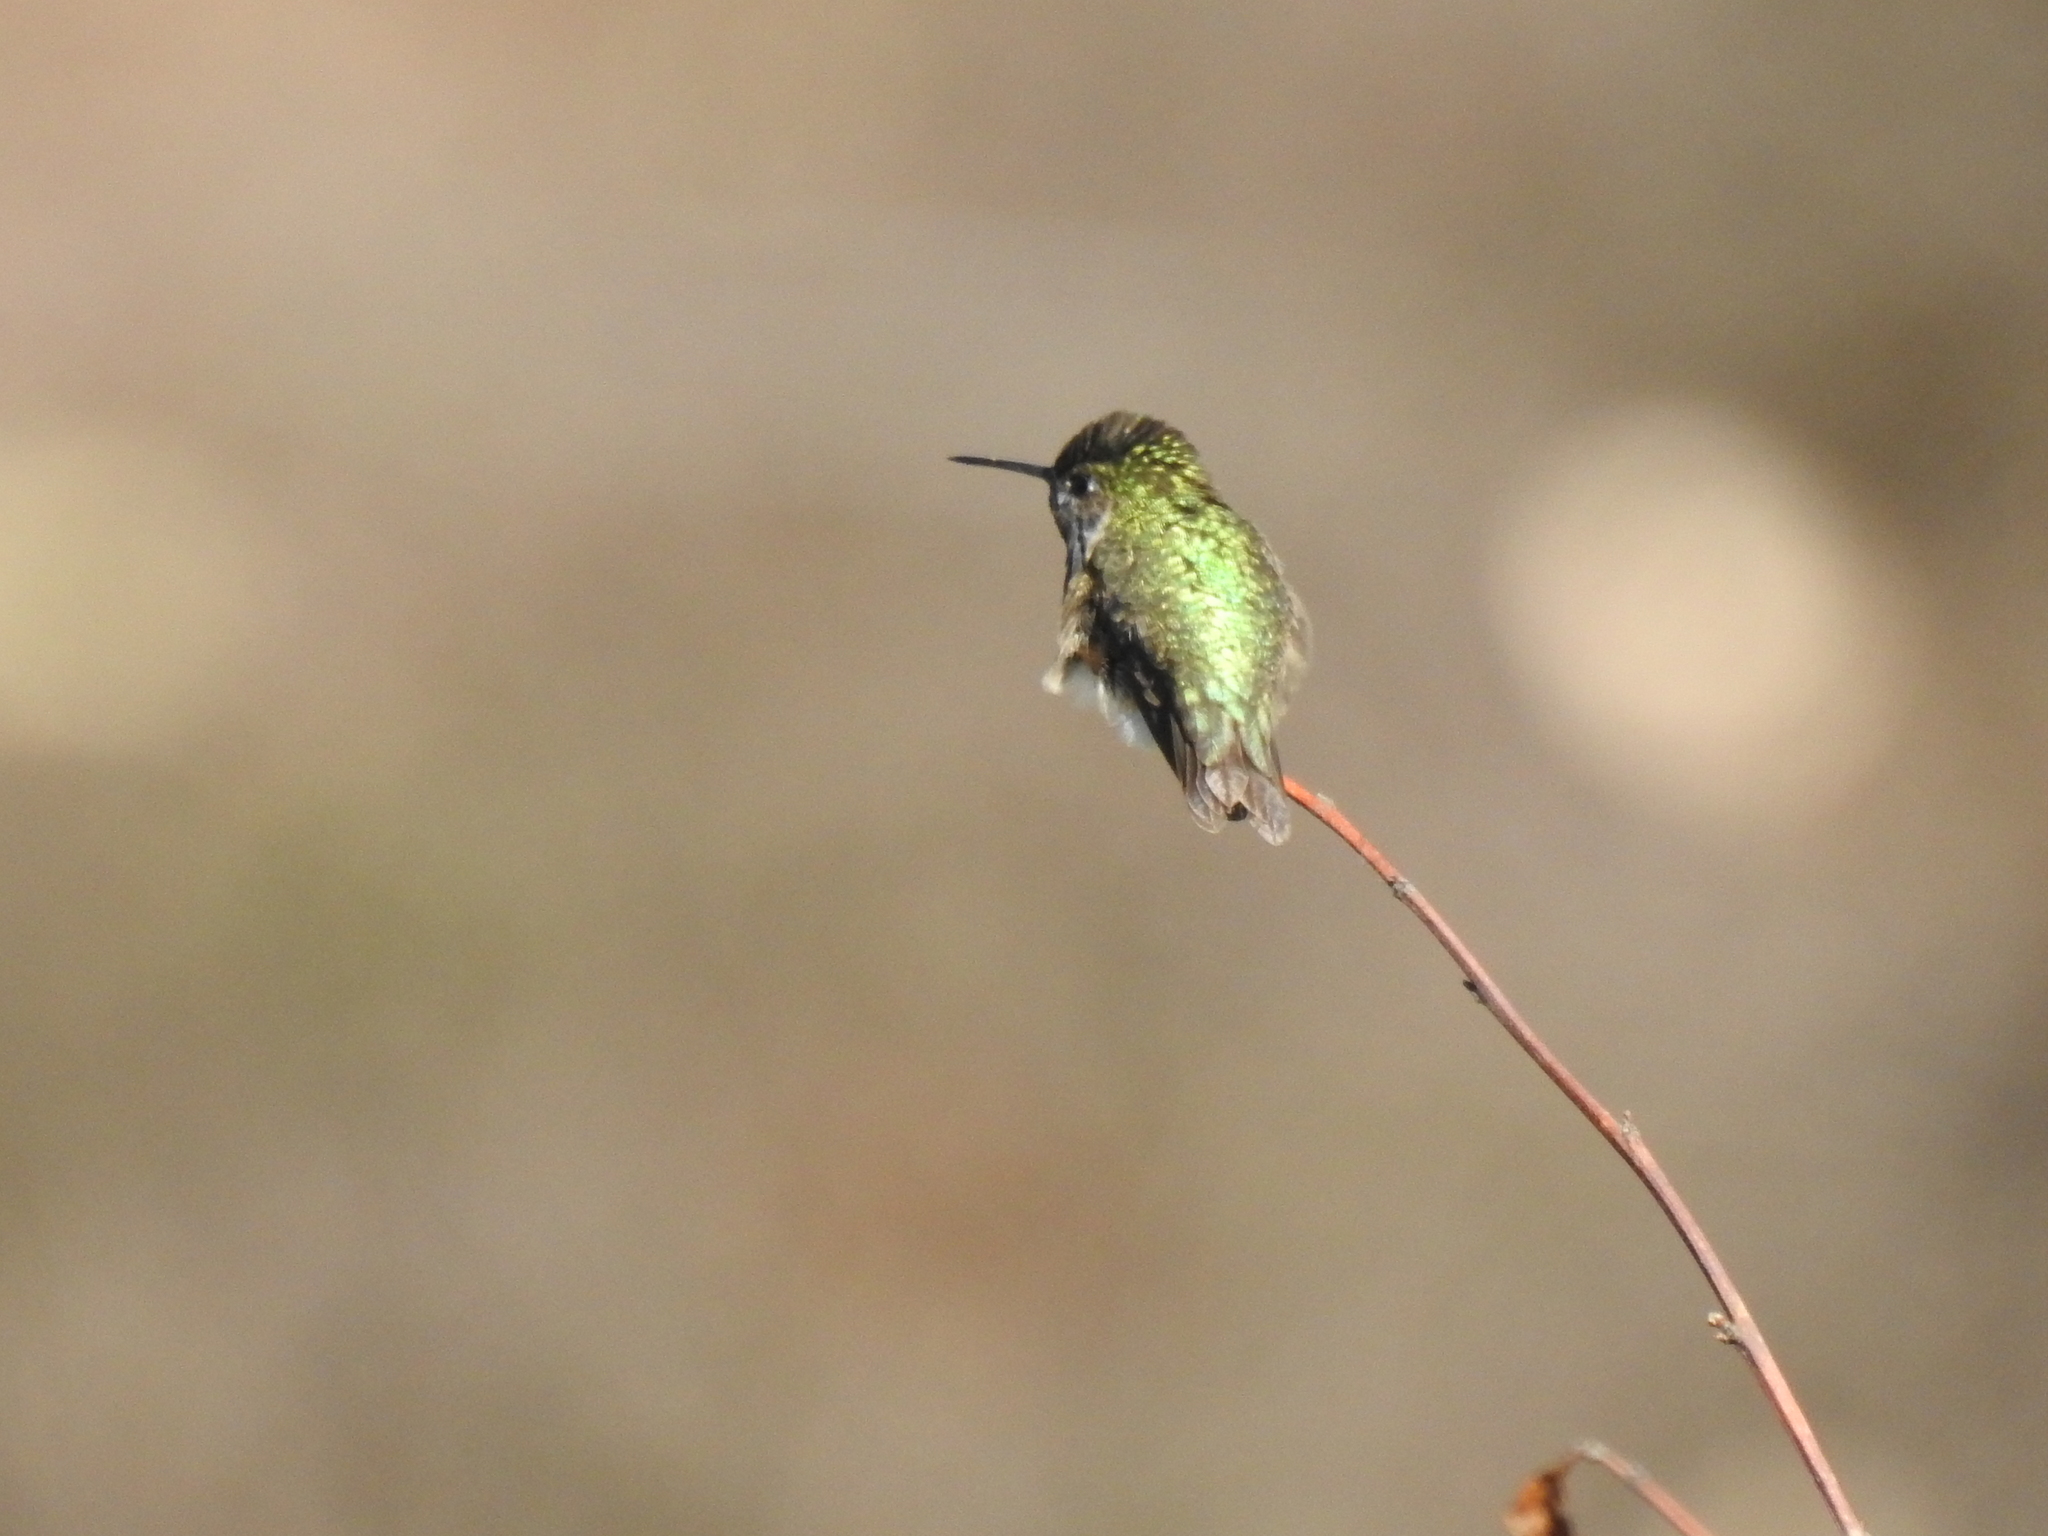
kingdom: Animalia
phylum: Chordata
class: Aves
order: Apodiformes
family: Trochilidae
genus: Selasphorus
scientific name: Selasphorus calliope
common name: Calliope hummingbird
